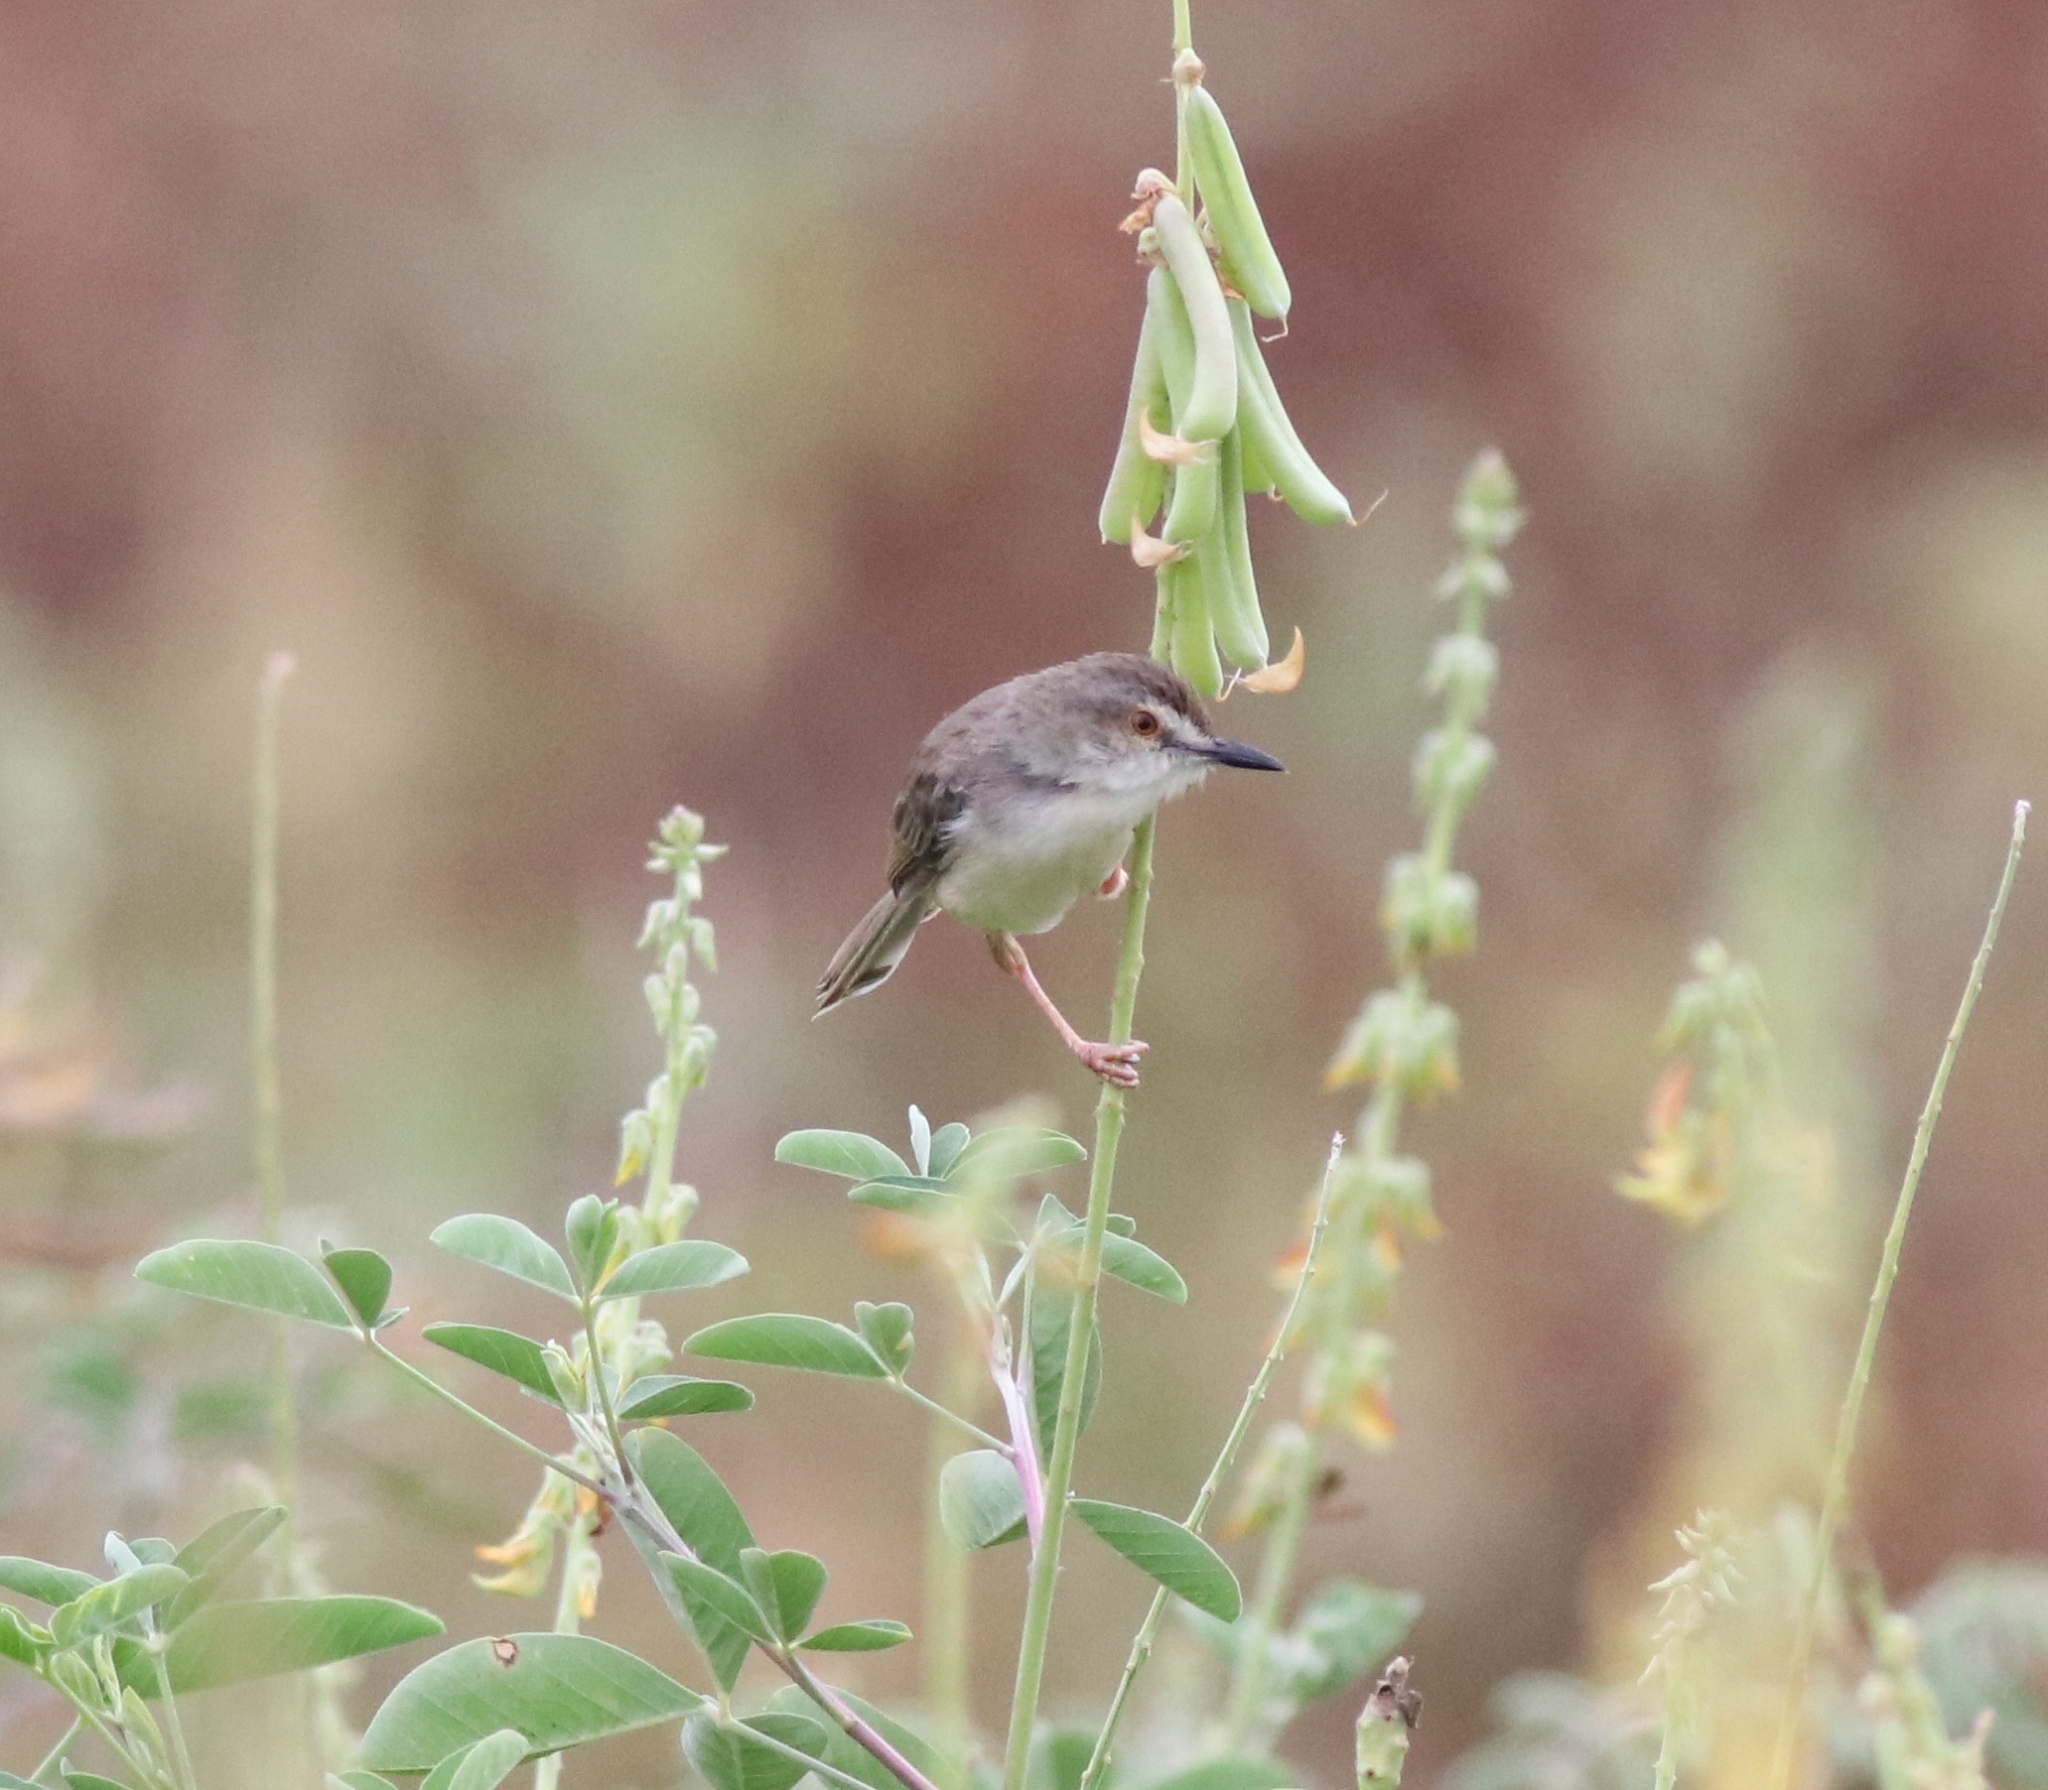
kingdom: Animalia
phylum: Chordata
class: Aves
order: Passeriformes
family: Cisticolidae
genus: Prinia
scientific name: Prinia inornata
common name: Plain prinia
